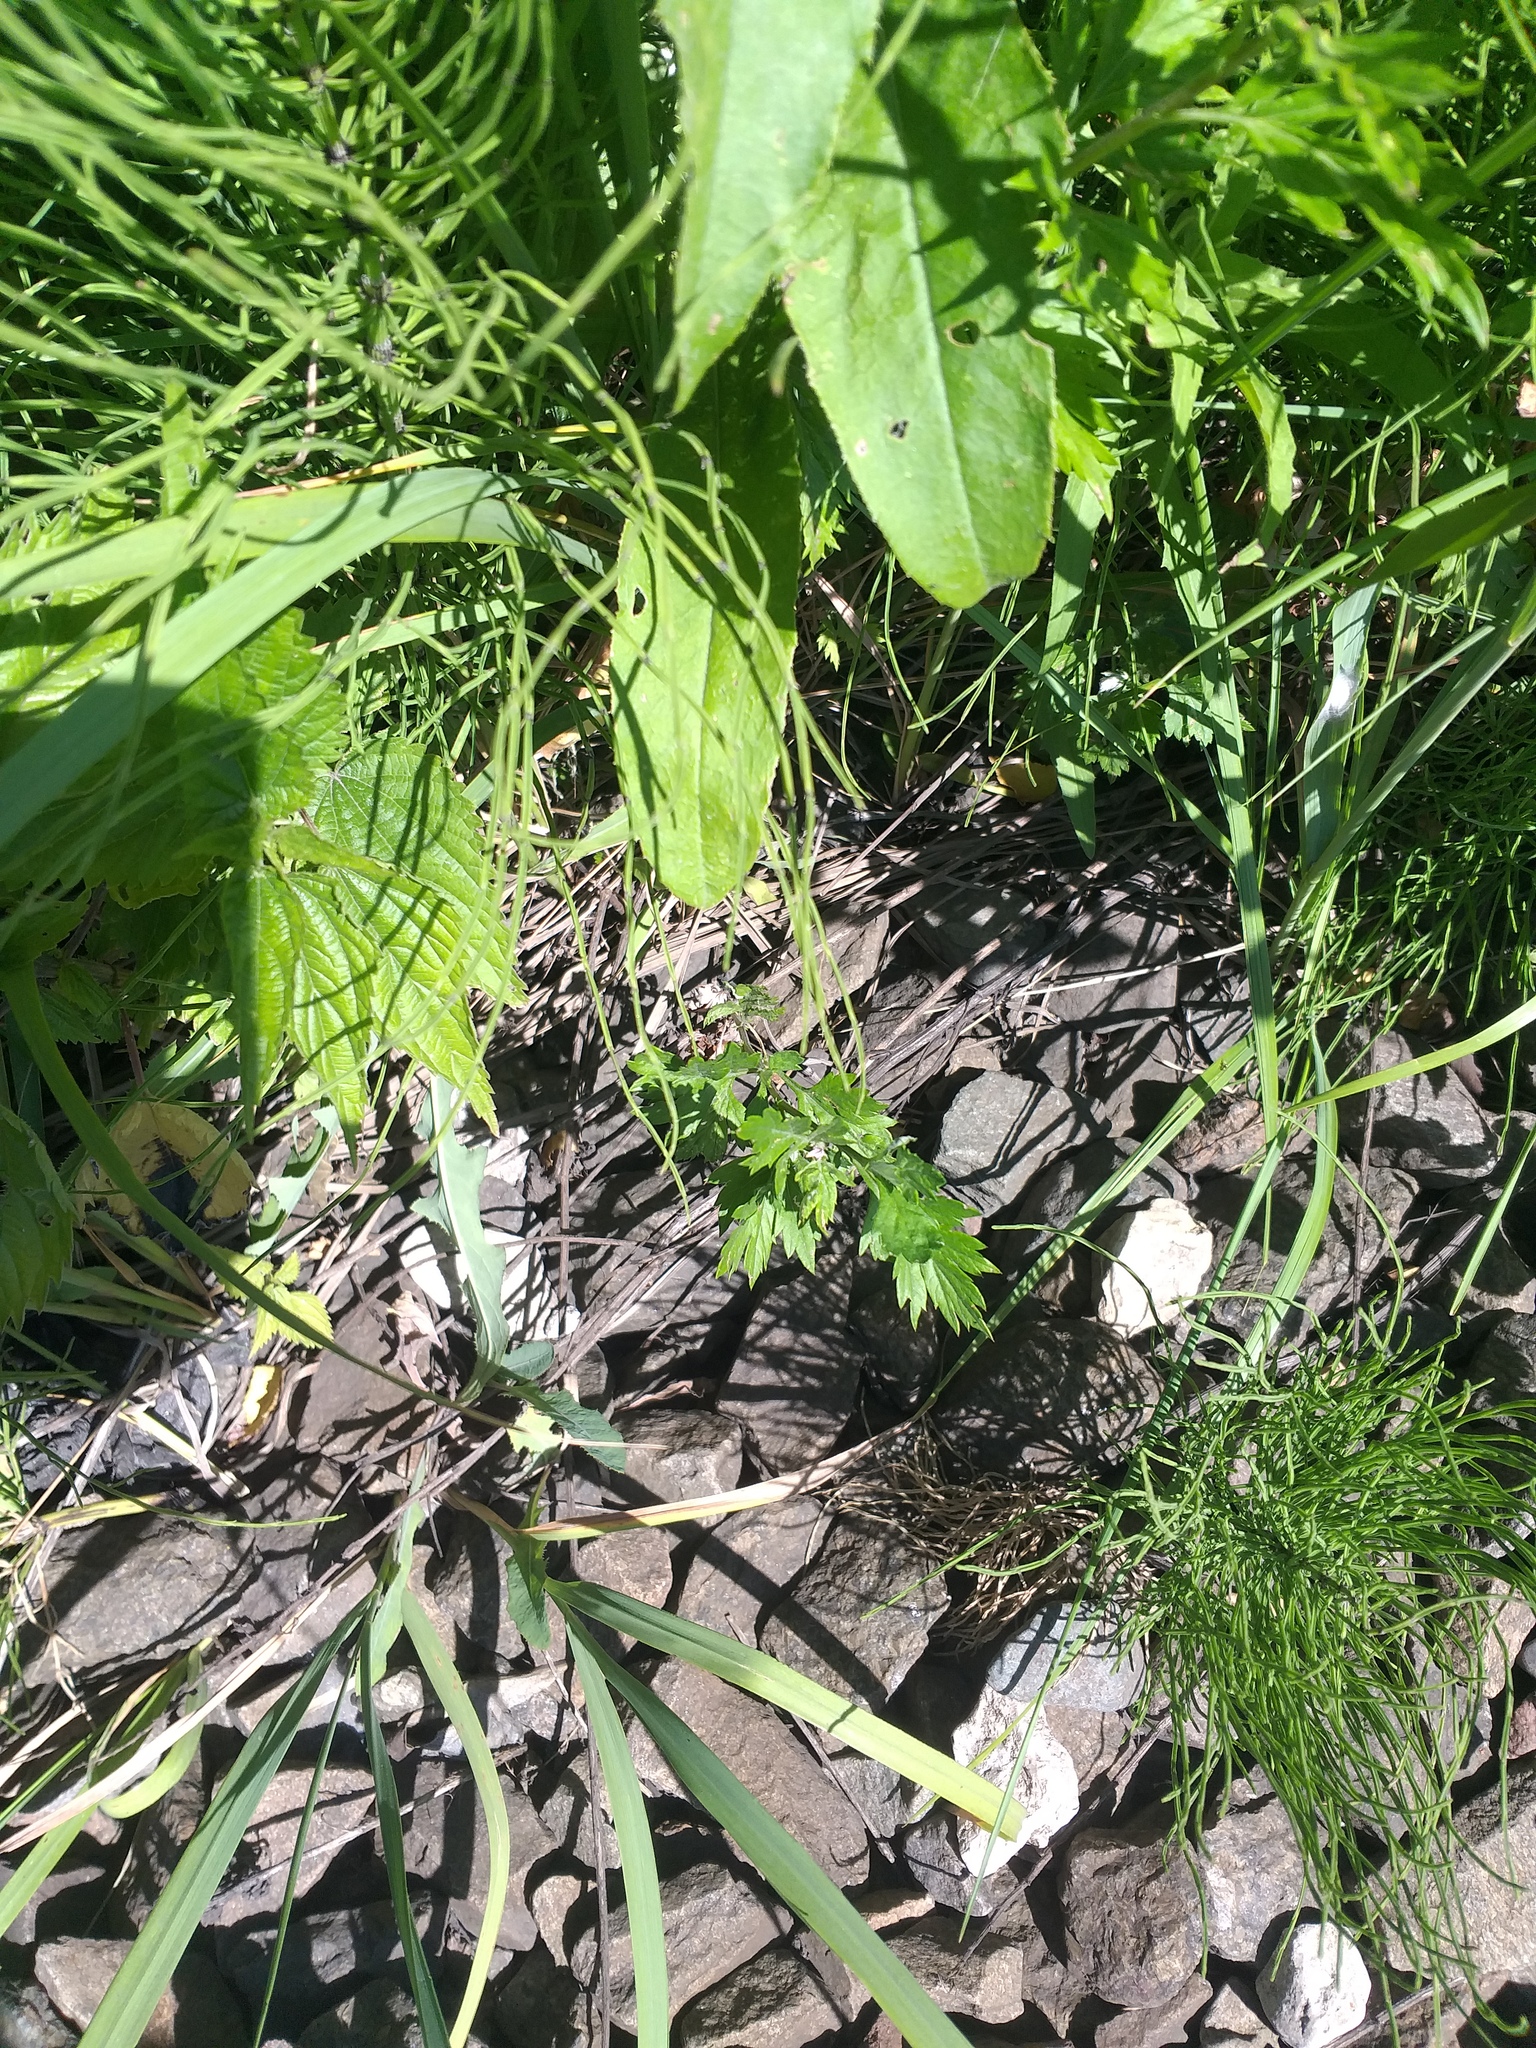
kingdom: Plantae
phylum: Tracheophyta
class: Magnoliopsida
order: Asterales
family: Asteraceae
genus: Artemisia
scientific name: Artemisia vulgaris
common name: Mugwort
